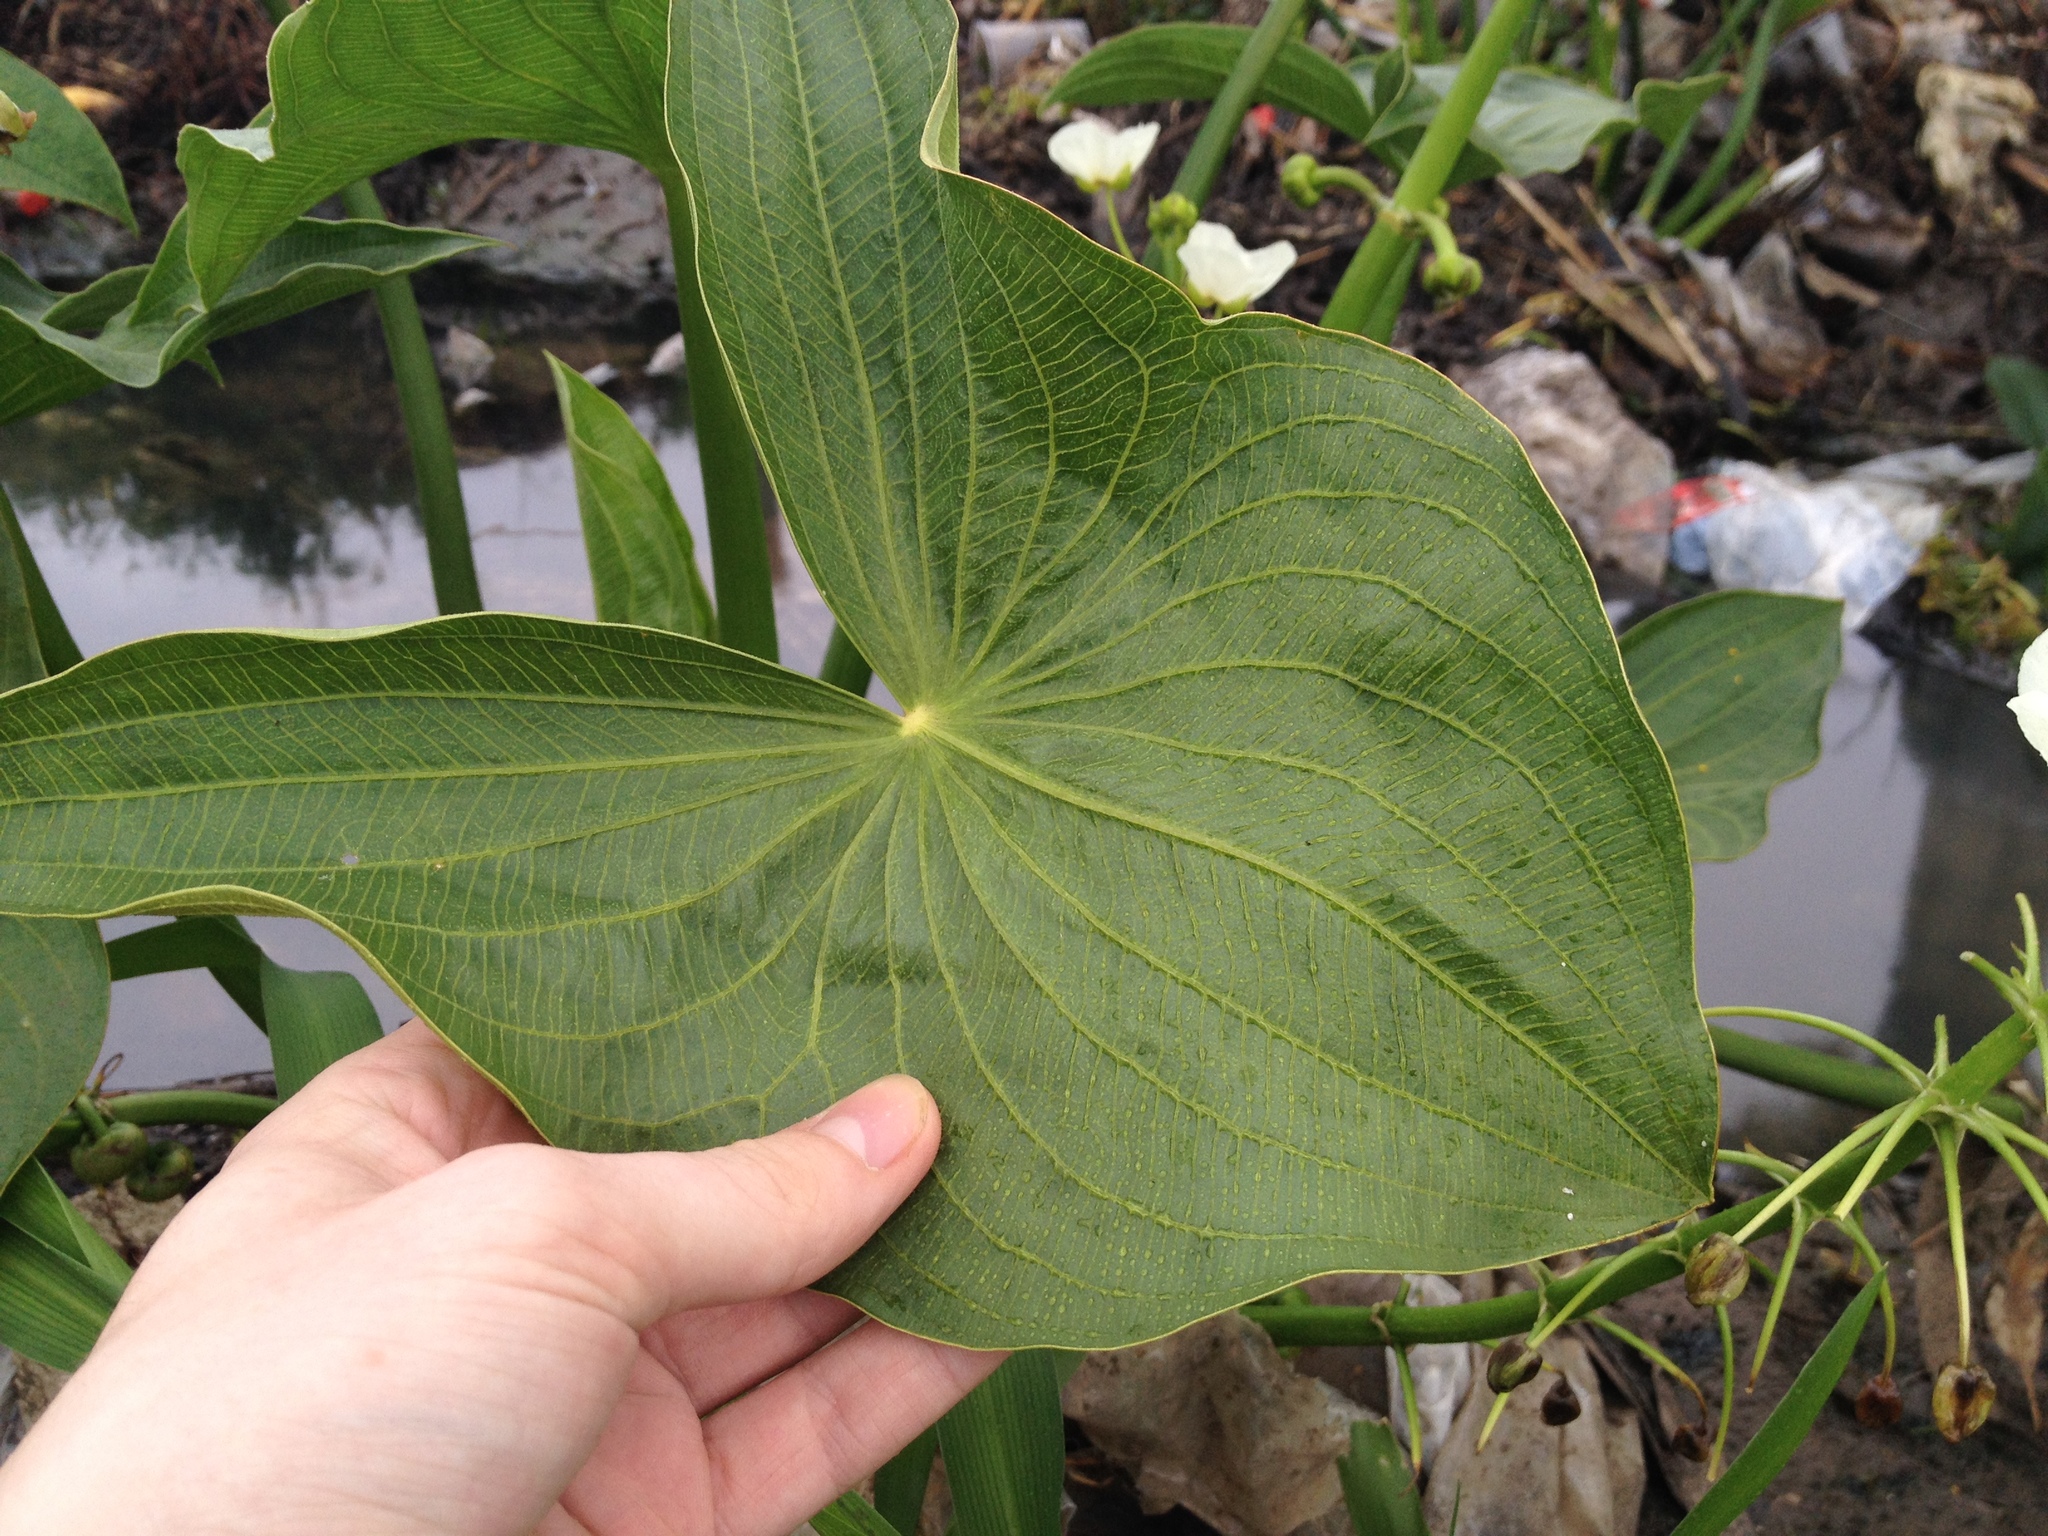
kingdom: Plantae
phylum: Tracheophyta
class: Liliopsida
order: Alismatales
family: Alismataceae
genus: Sagittaria
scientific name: Sagittaria montevidensis
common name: Giant arrowhead
